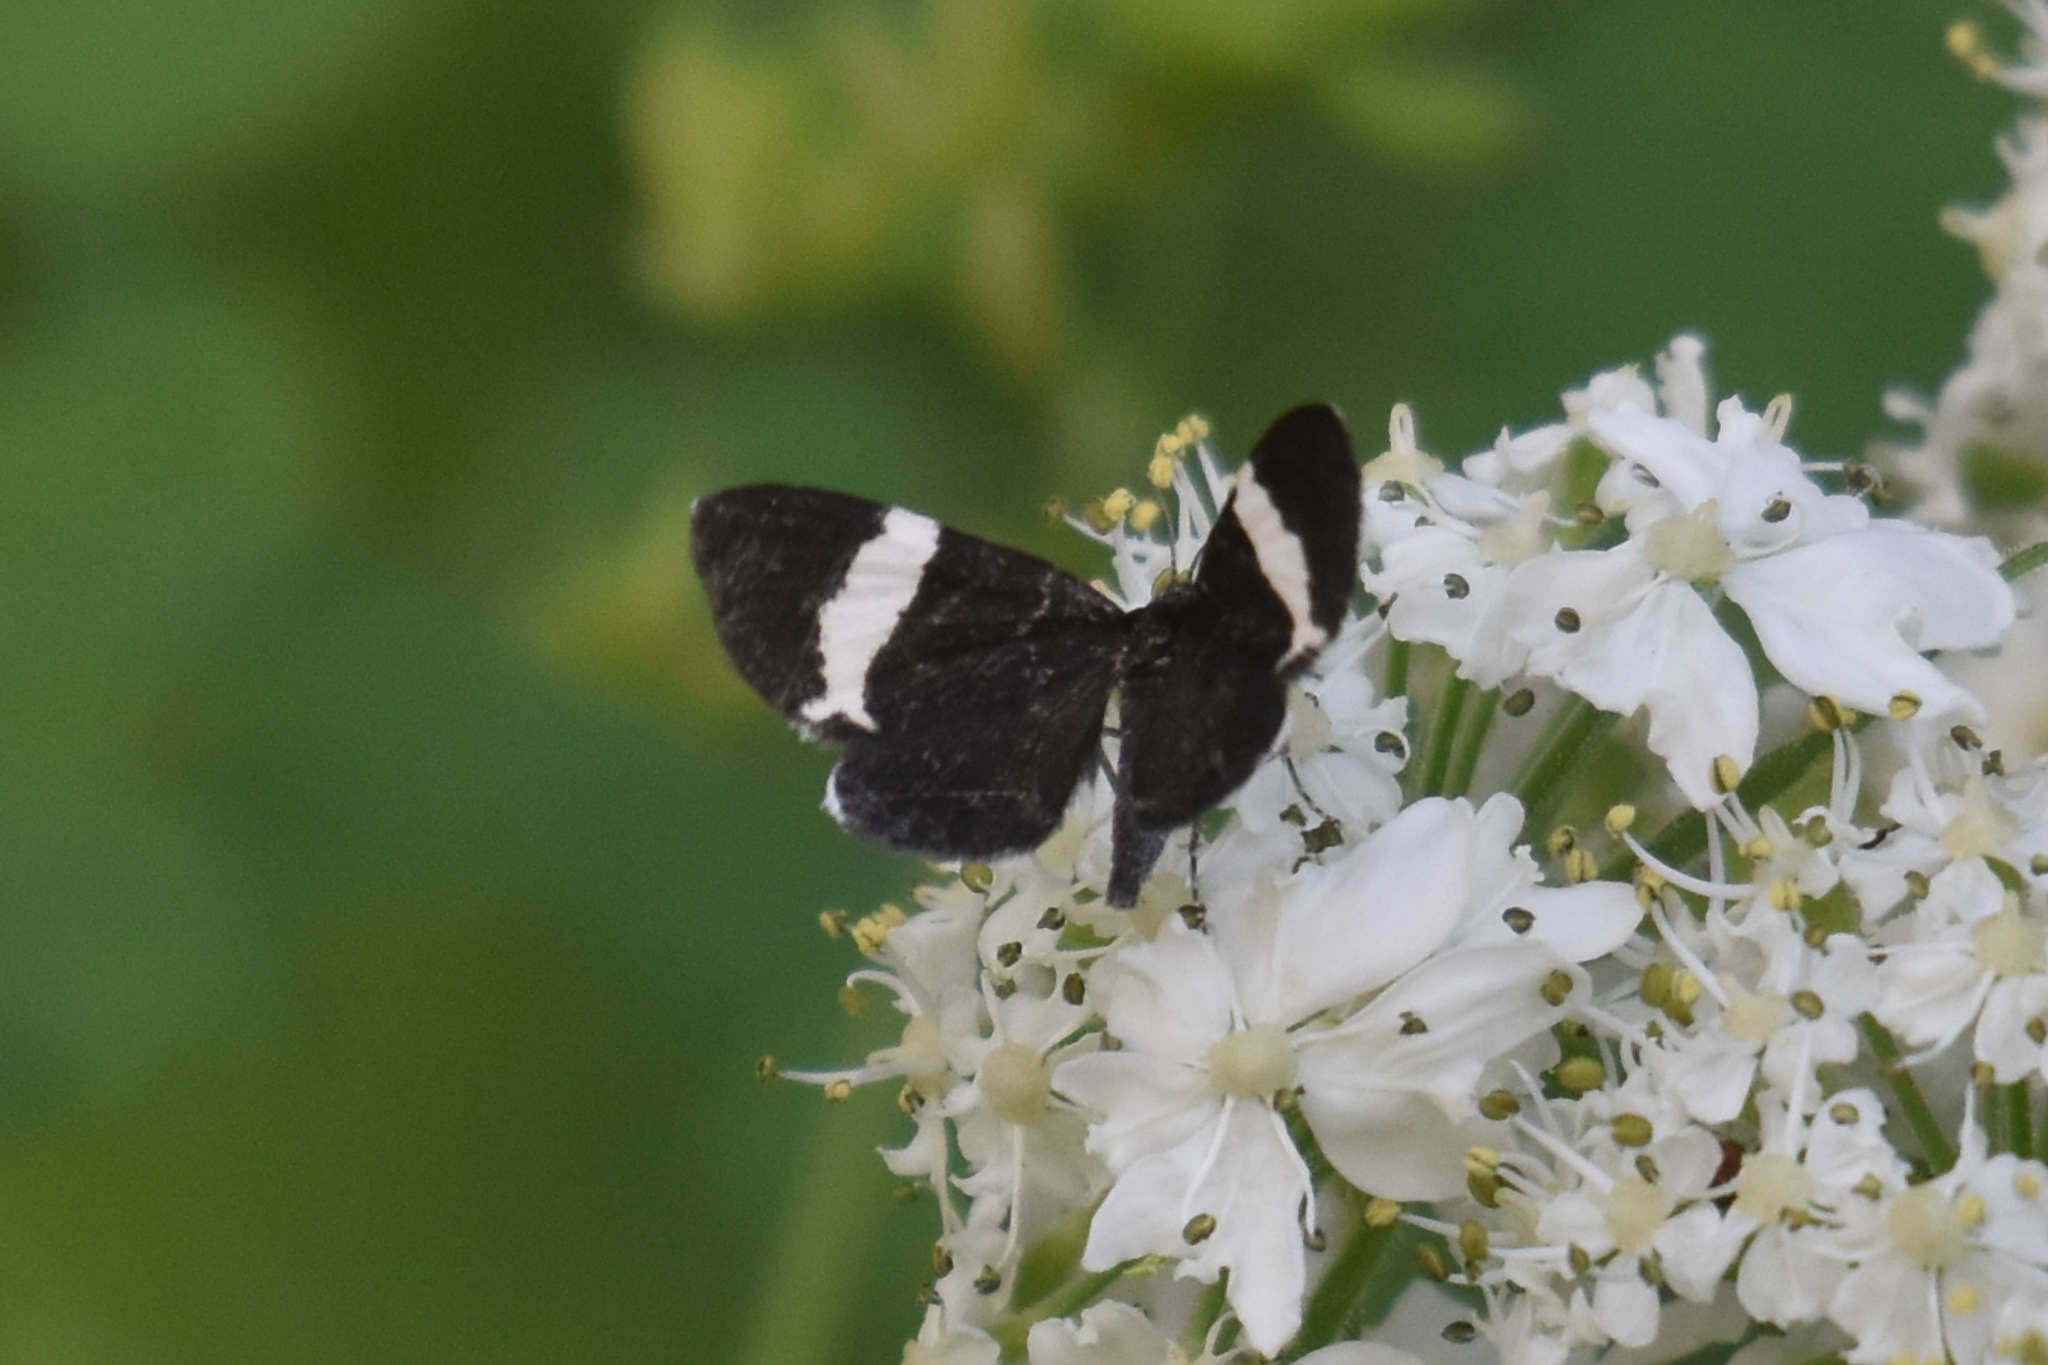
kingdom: Animalia
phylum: Arthropoda
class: Insecta
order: Lepidoptera
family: Geometridae
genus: Trichodezia
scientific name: Trichodezia albovittata
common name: White striped black
